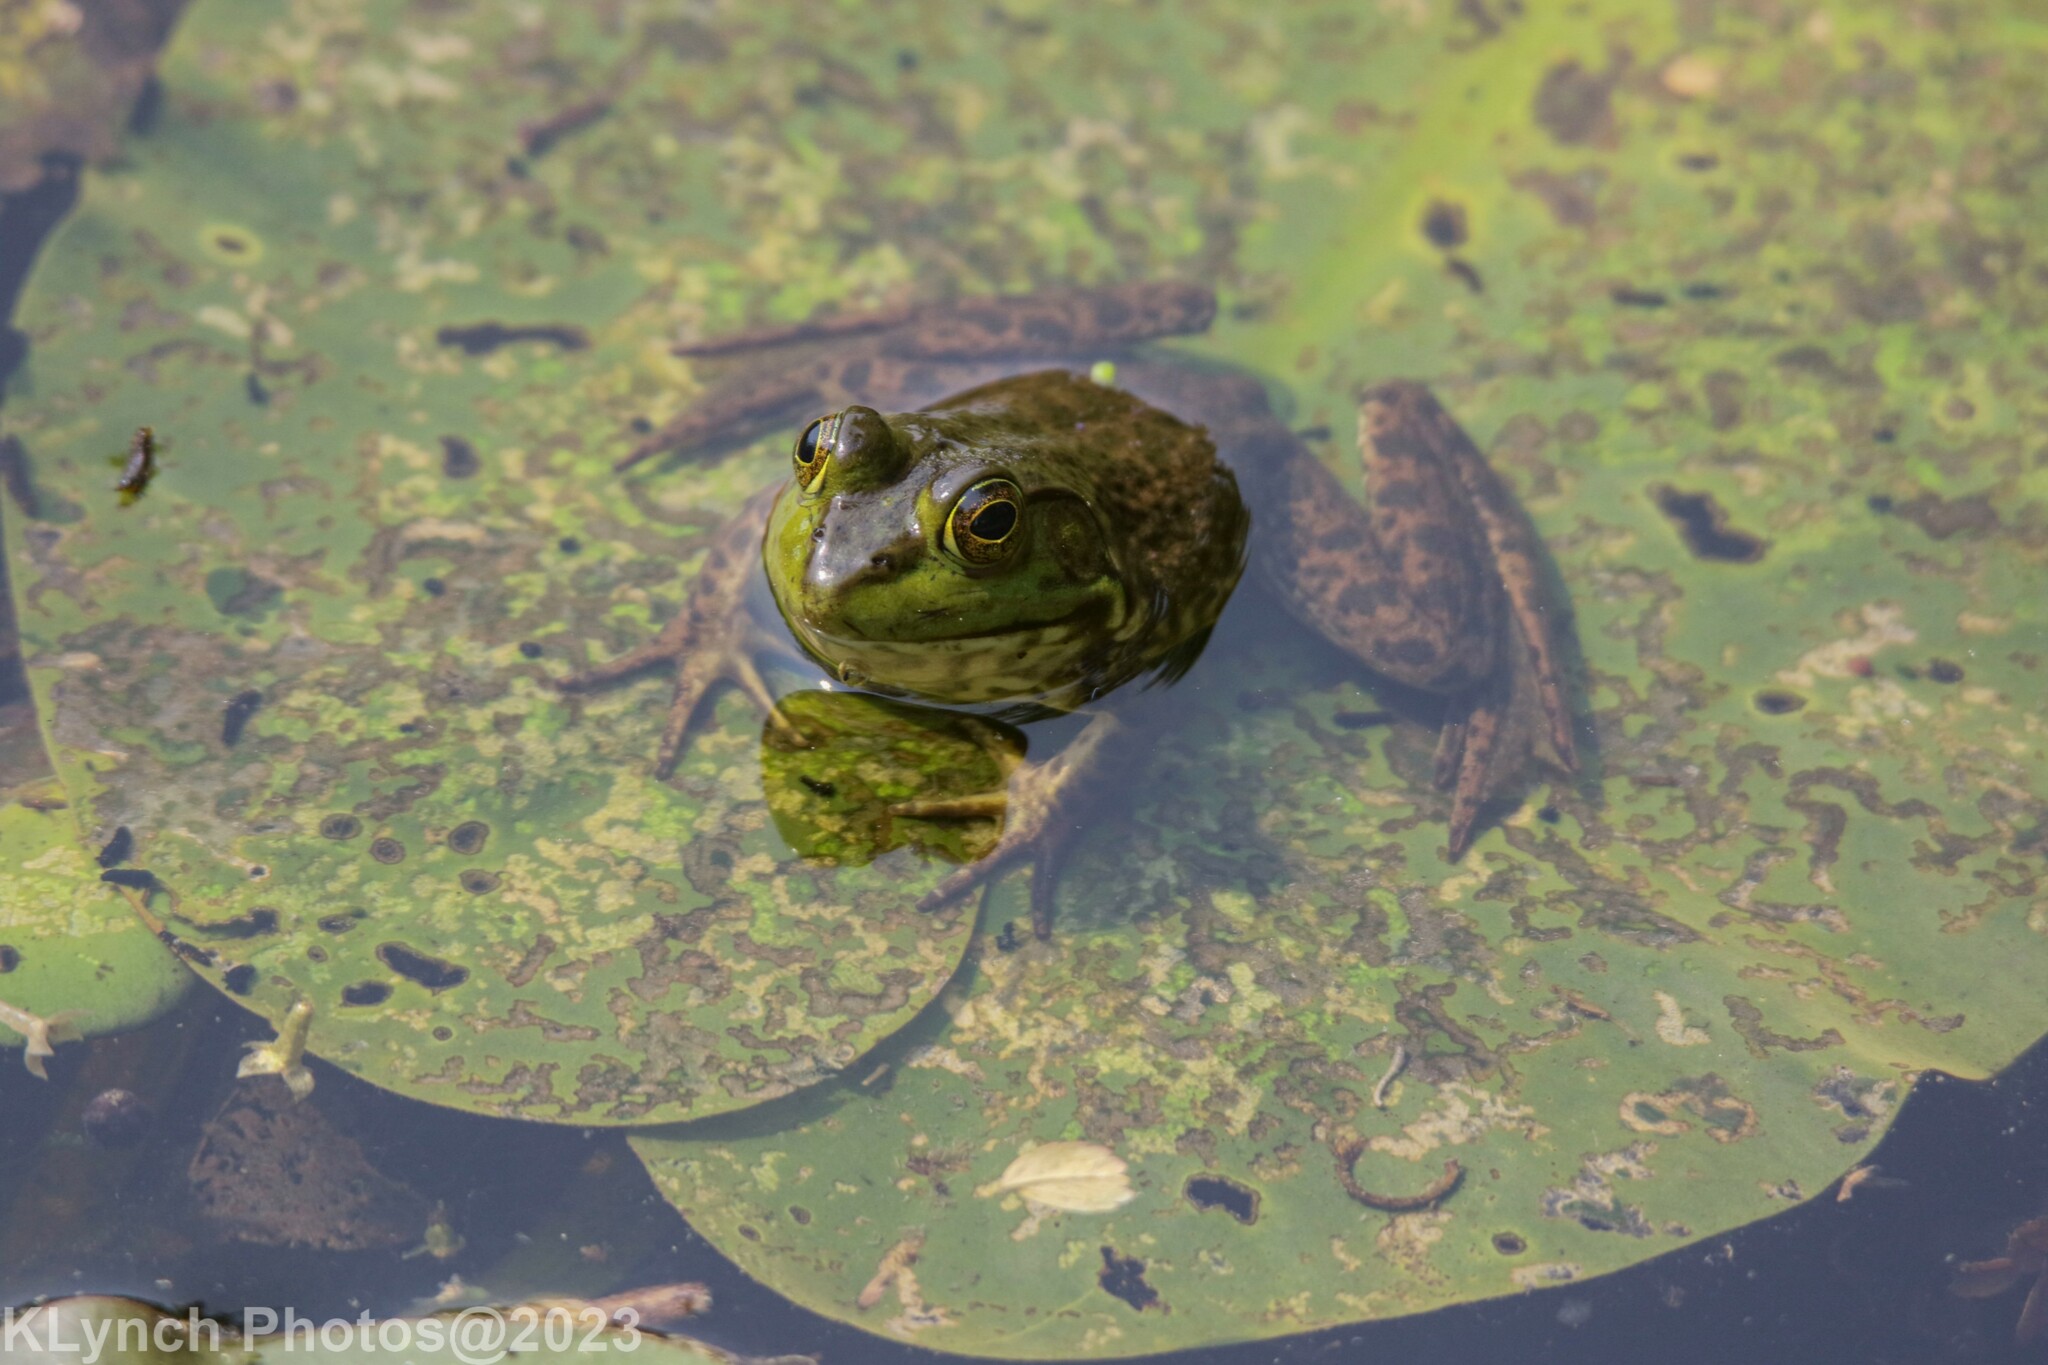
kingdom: Animalia
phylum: Chordata
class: Amphibia
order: Anura
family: Ranidae
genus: Lithobates
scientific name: Lithobates catesbeianus
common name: American bullfrog
